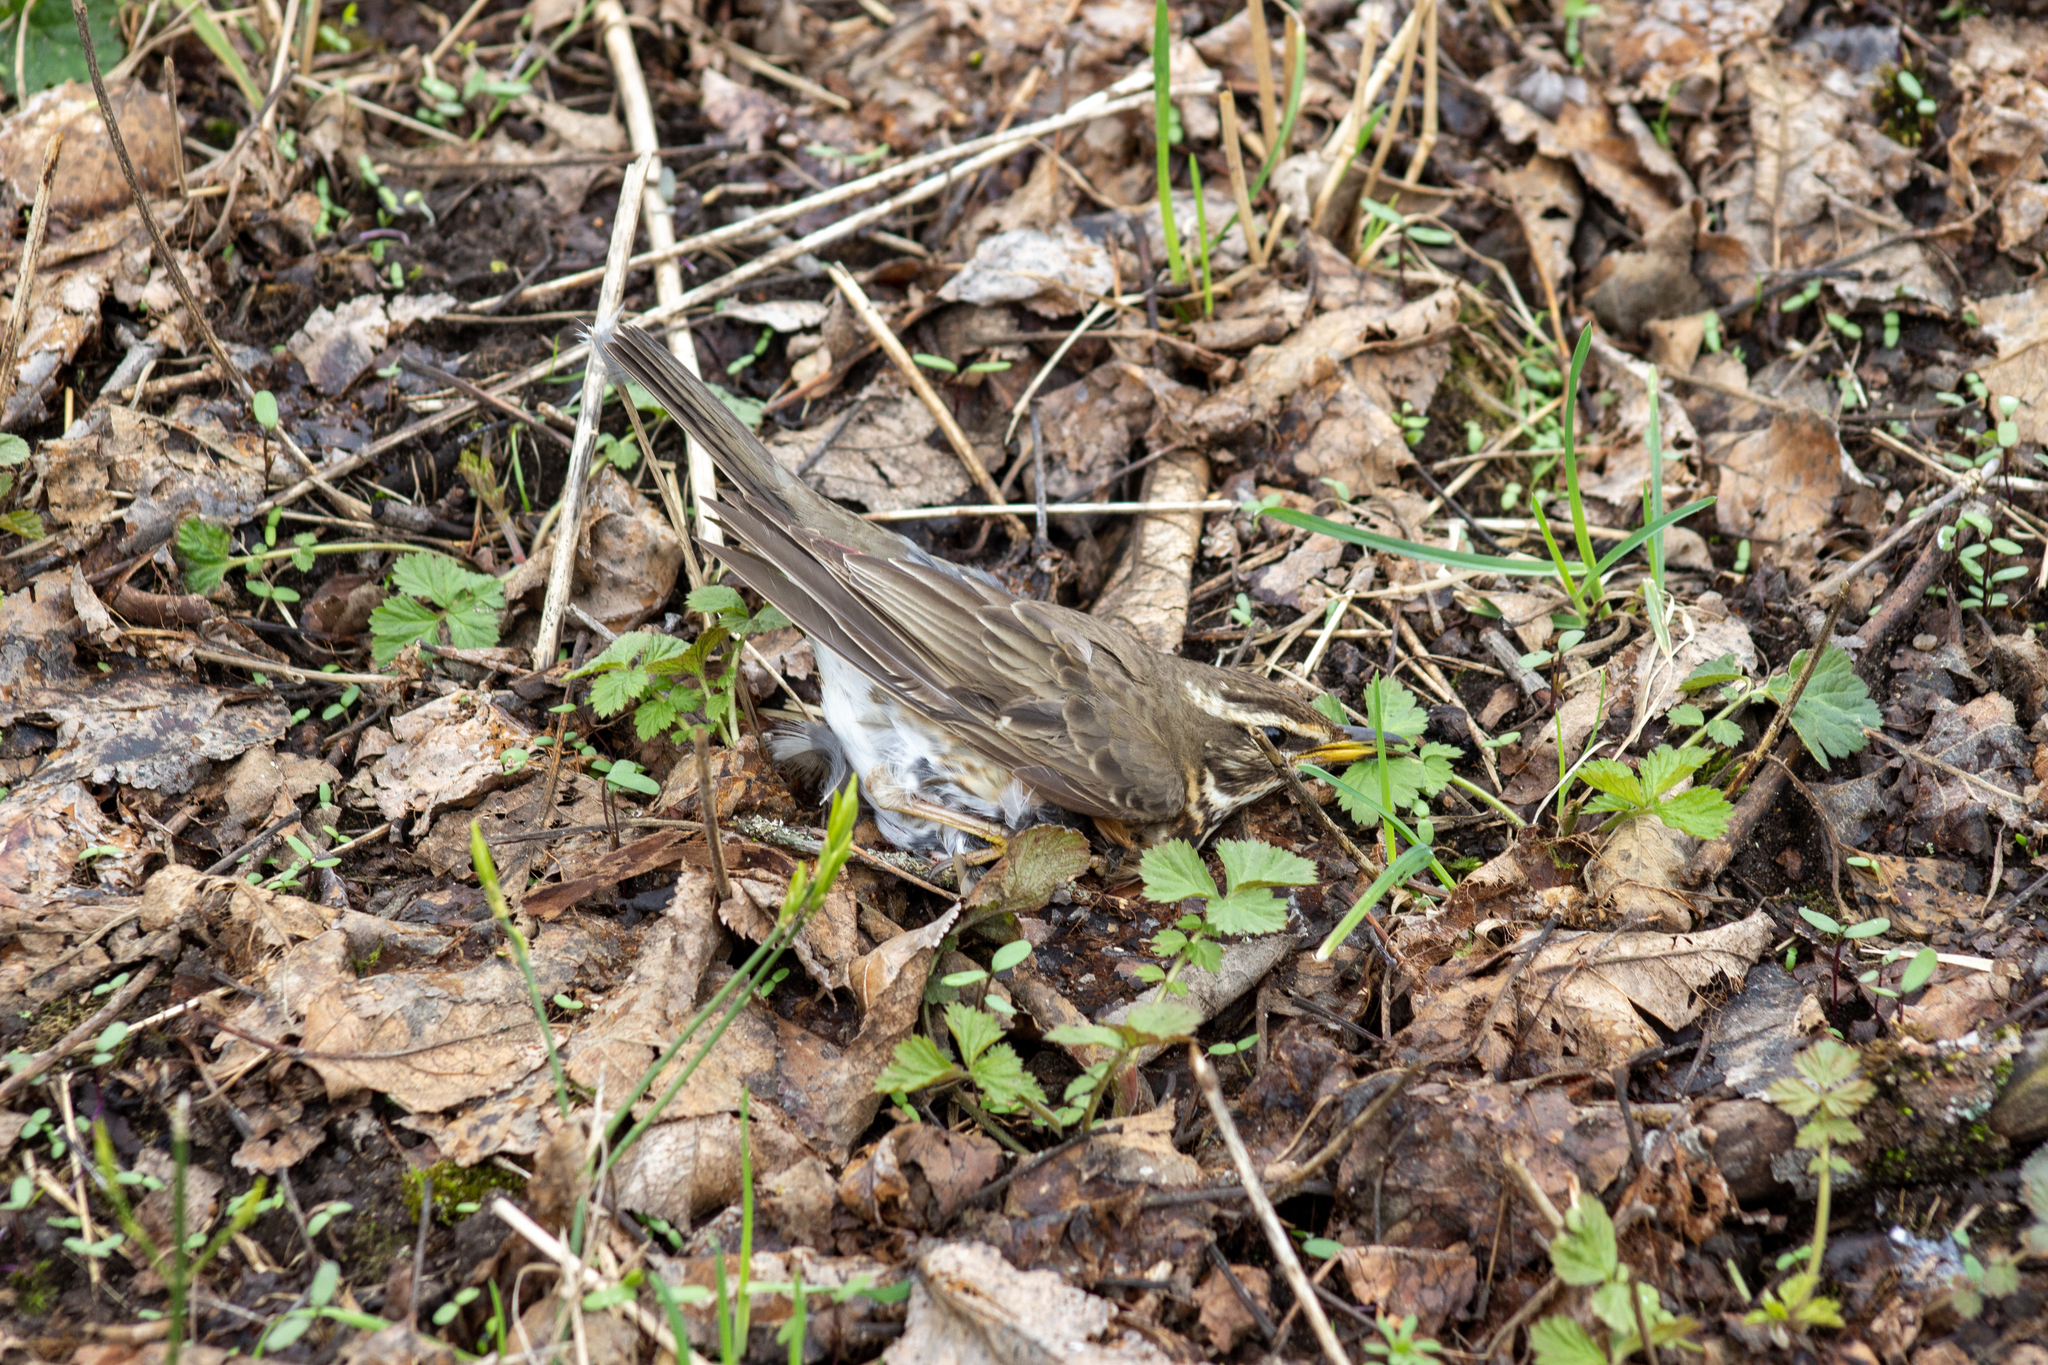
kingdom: Animalia
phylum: Chordata
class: Aves
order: Passeriformes
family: Turdidae
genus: Turdus
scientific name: Turdus iliacus
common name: Redwing
